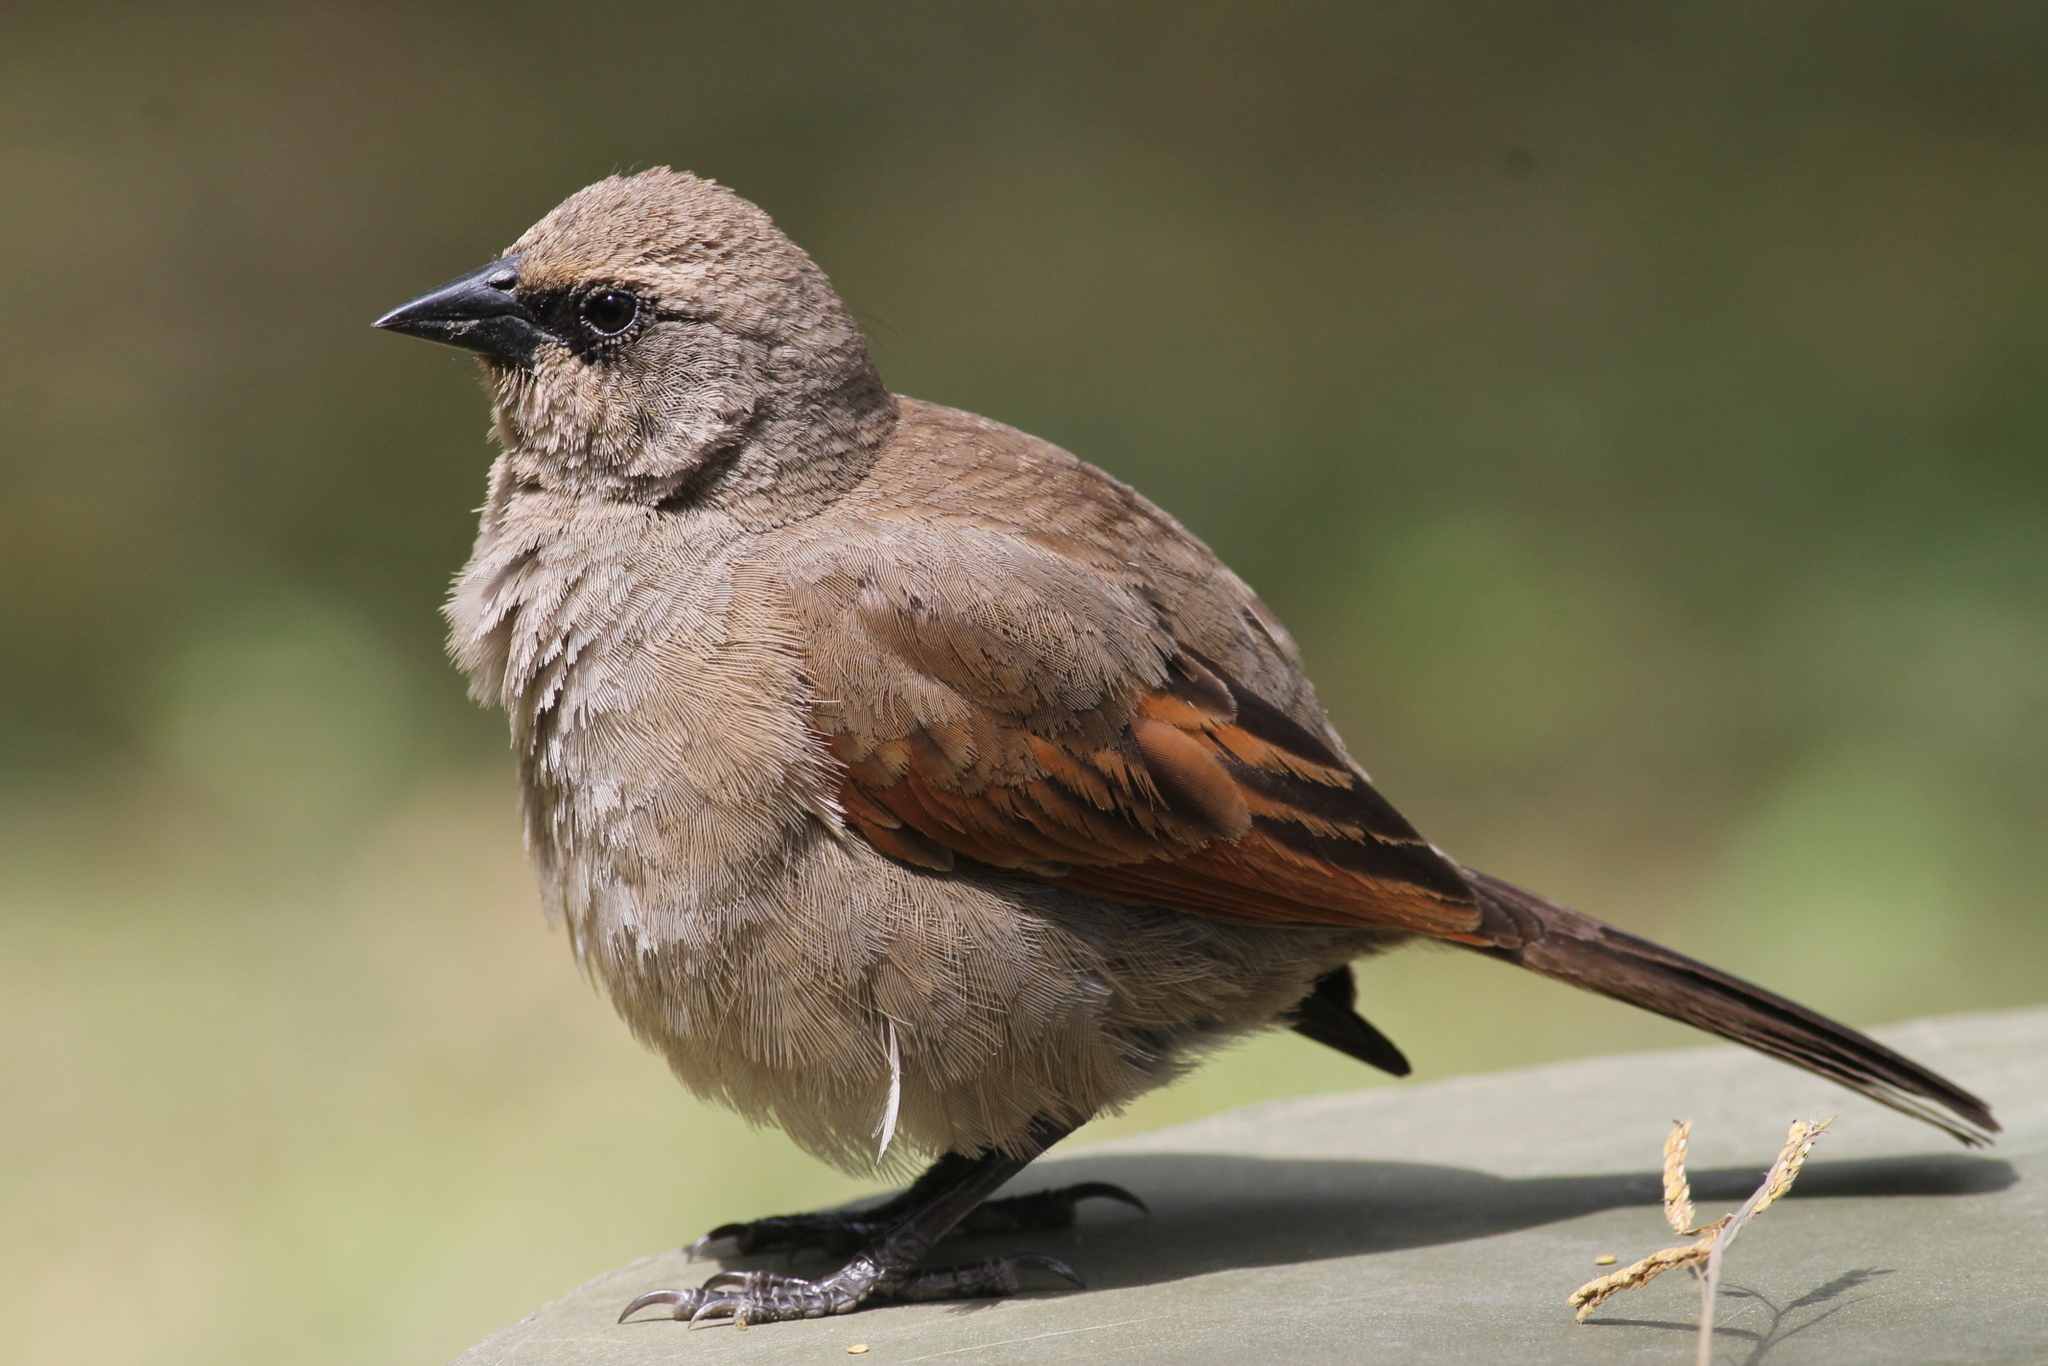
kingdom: Animalia
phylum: Chordata
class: Aves
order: Passeriformes
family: Icteridae
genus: Agelaioides
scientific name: Agelaioides badius
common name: Baywing
